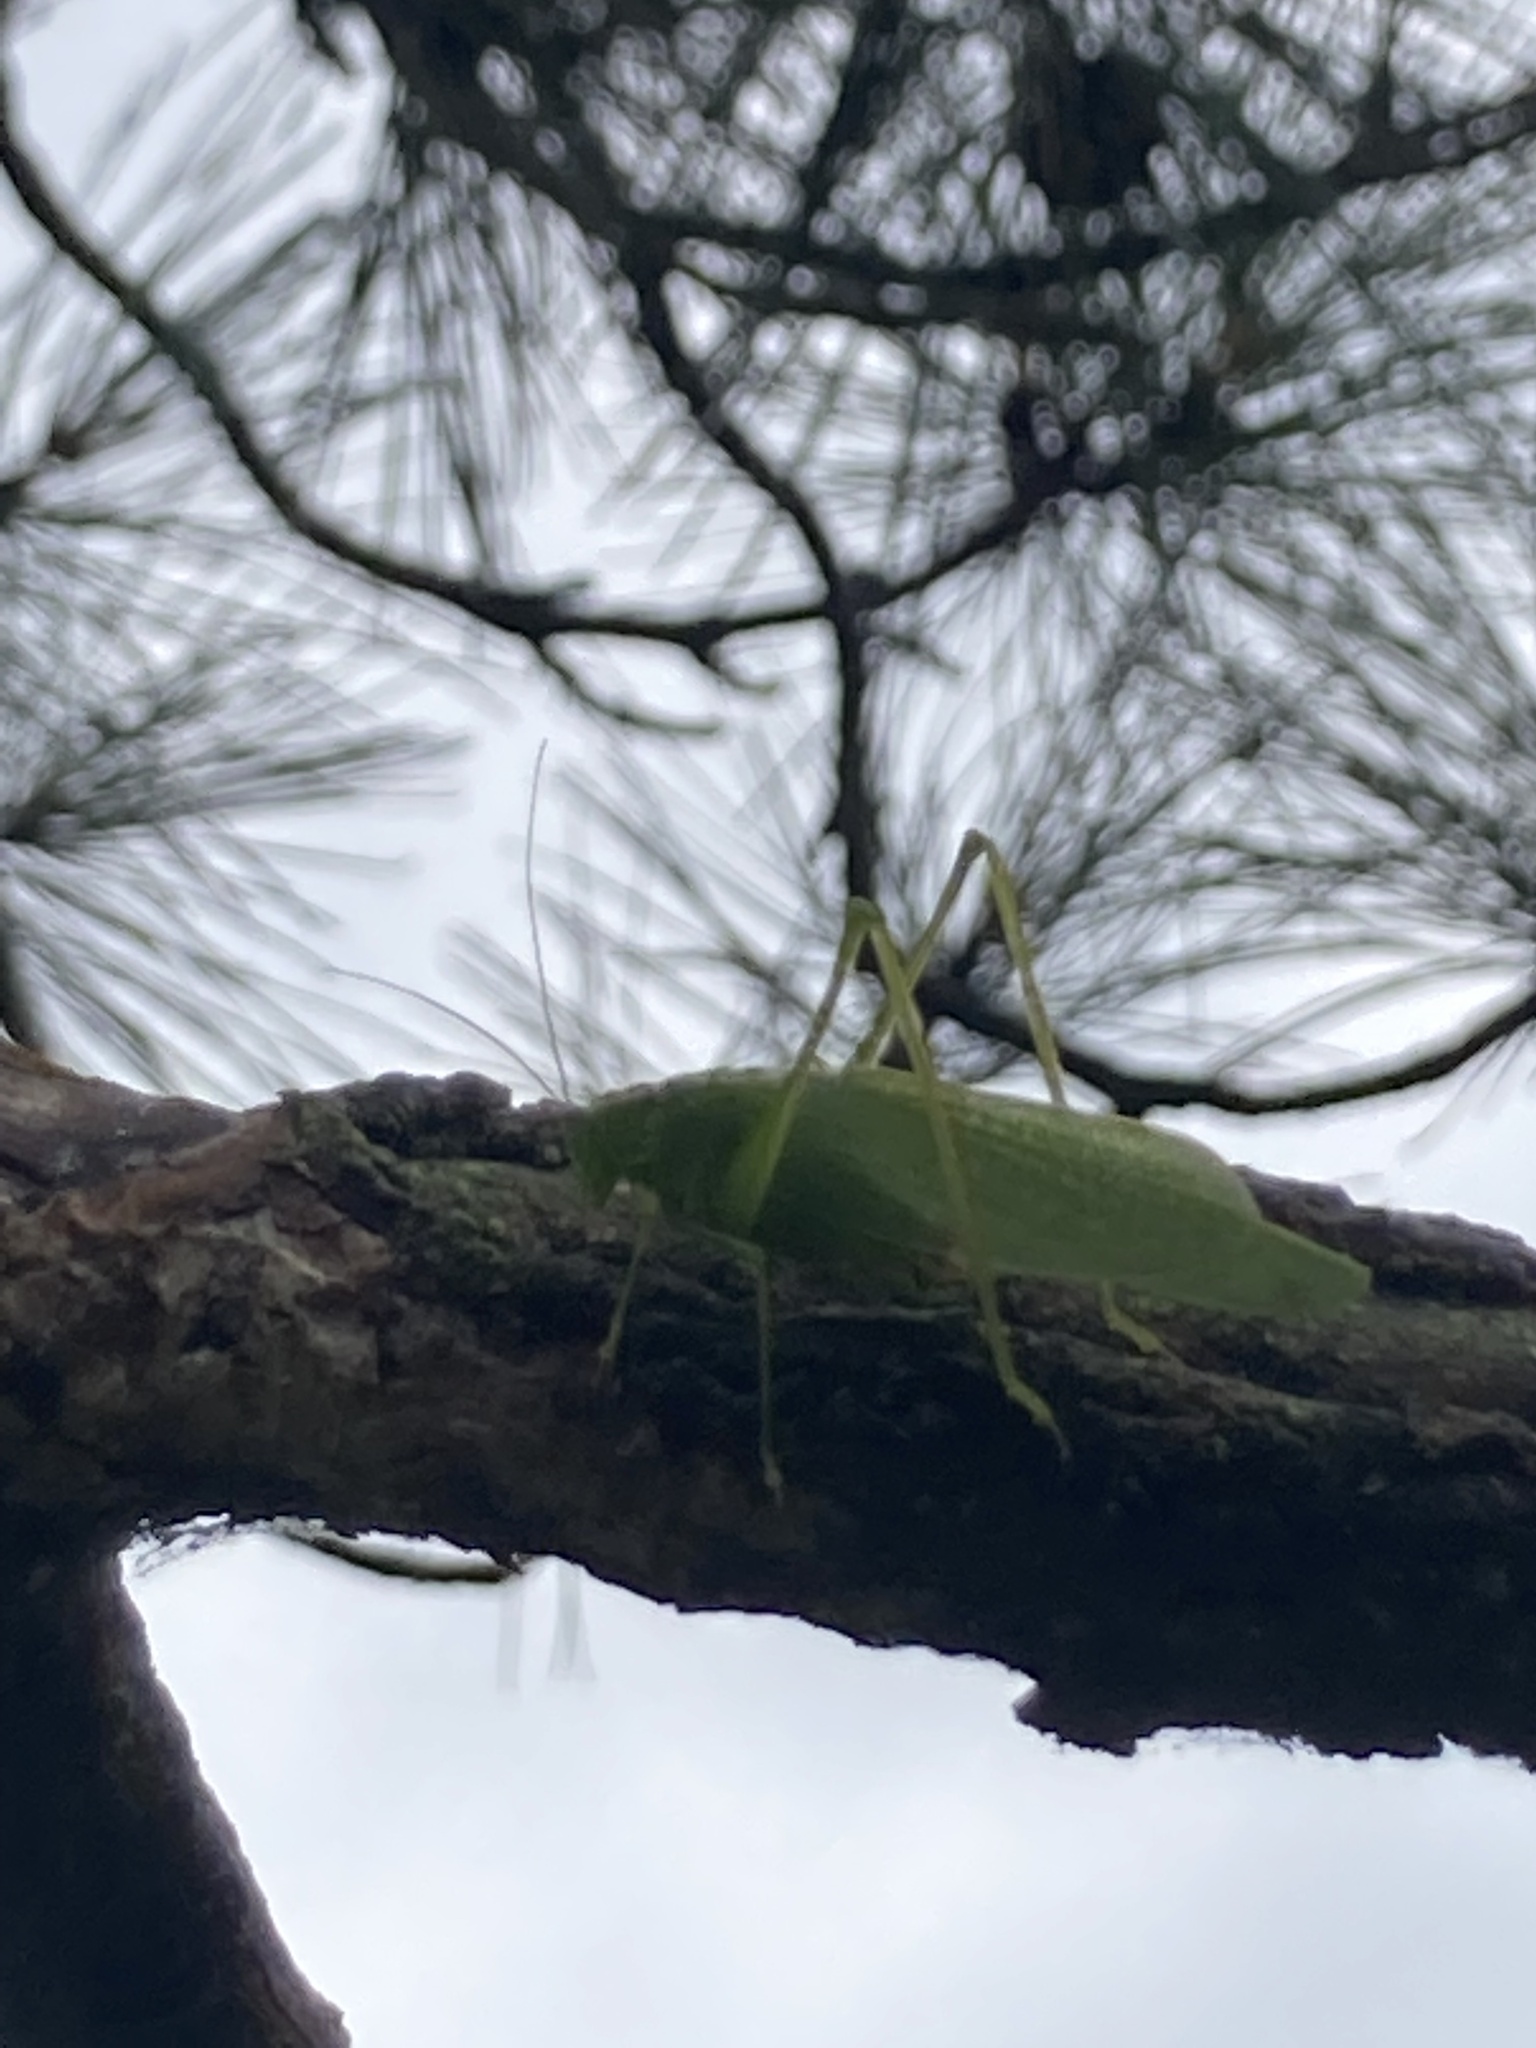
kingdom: Animalia
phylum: Arthropoda
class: Insecta
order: Orthoptera
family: Tettigoniidae
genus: Scudderia
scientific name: Scudderia septentrionalis
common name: Northern bush-katydid
